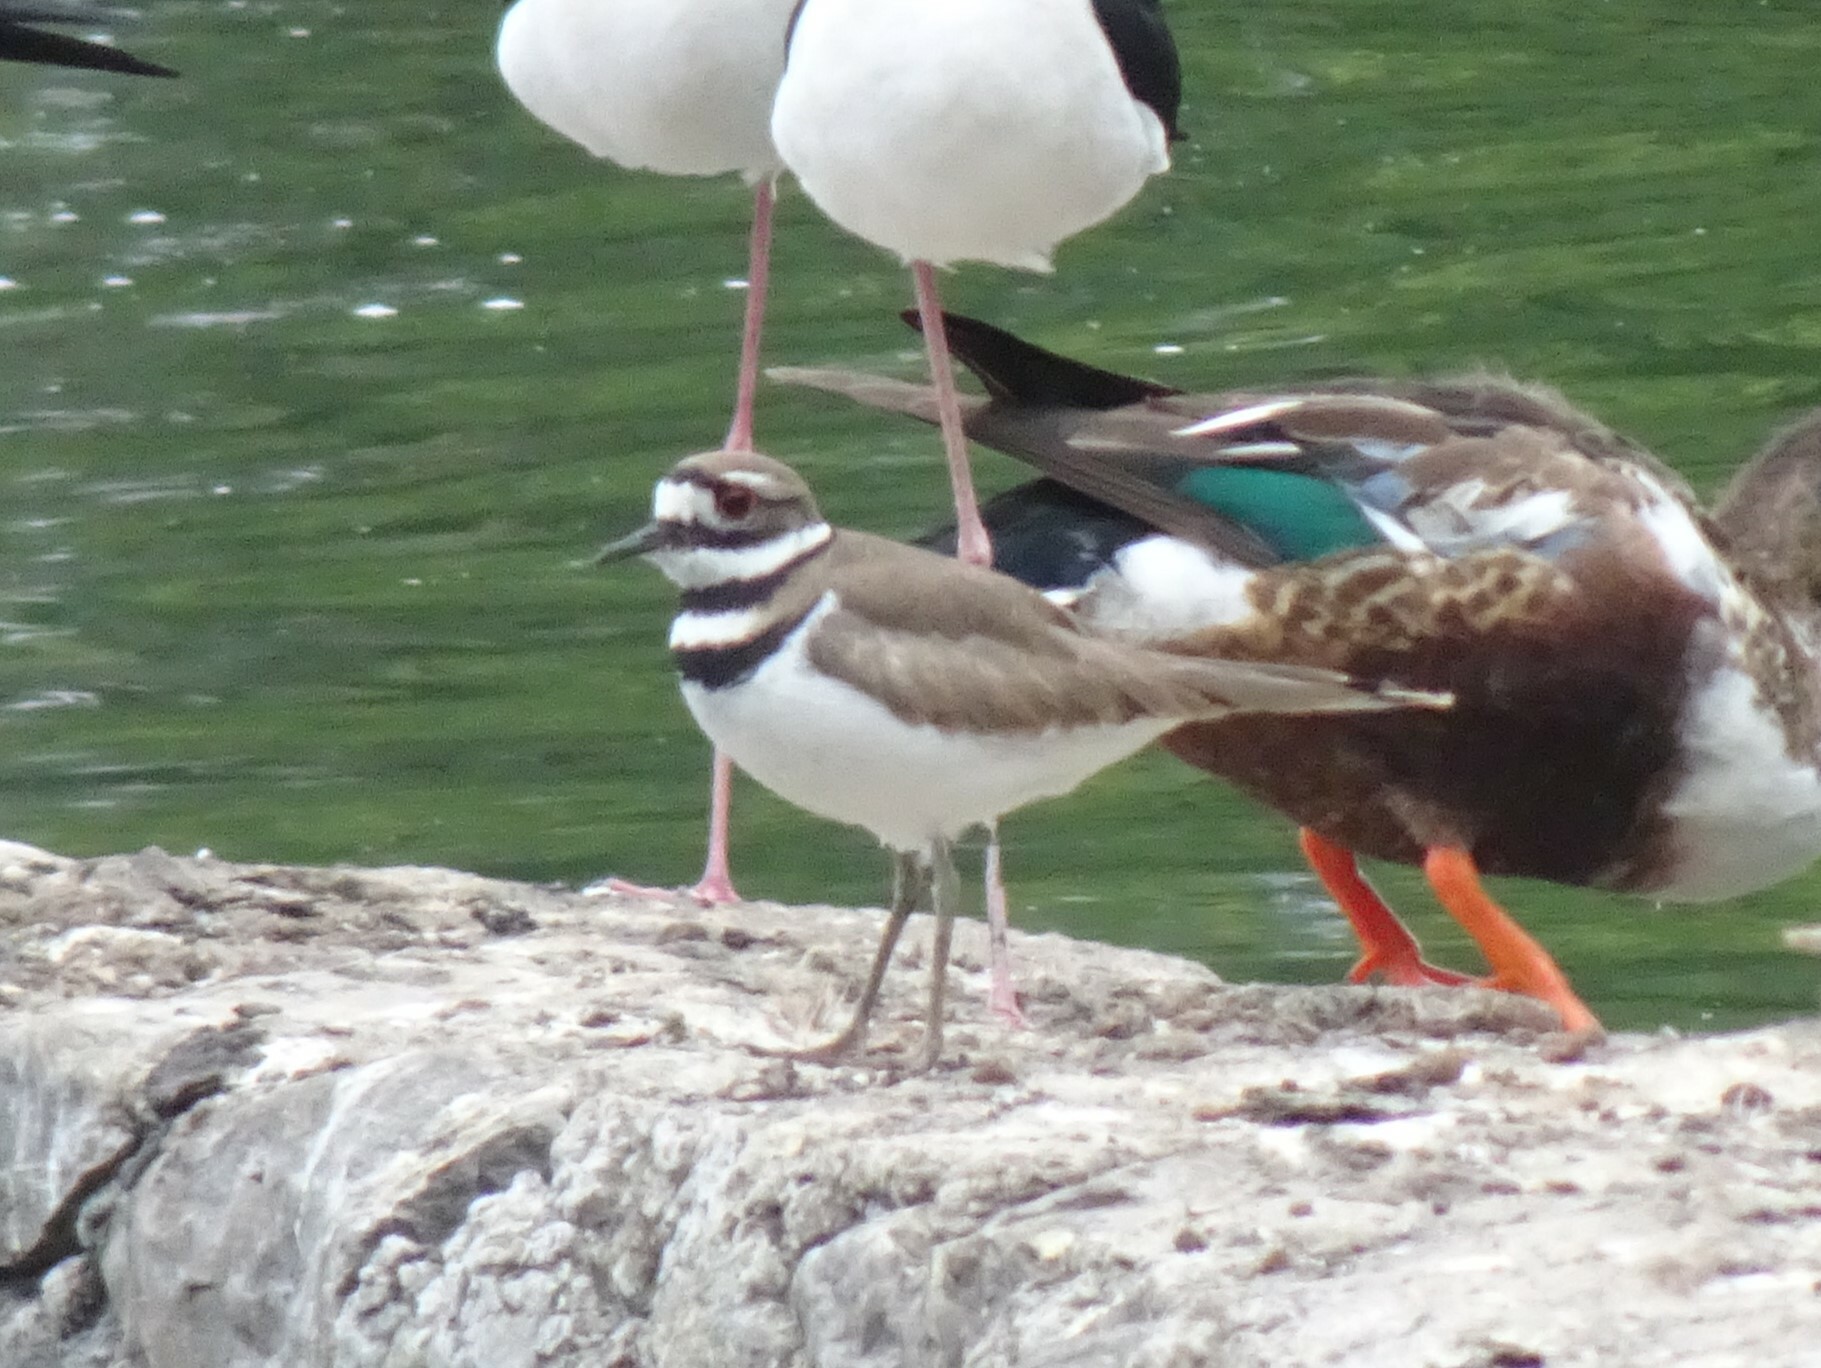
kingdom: Animalia
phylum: Chordata
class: Aves
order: Charadriiformes
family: Charadriidae
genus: Charadrius
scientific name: Charadrius vociferus
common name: Killdeer
